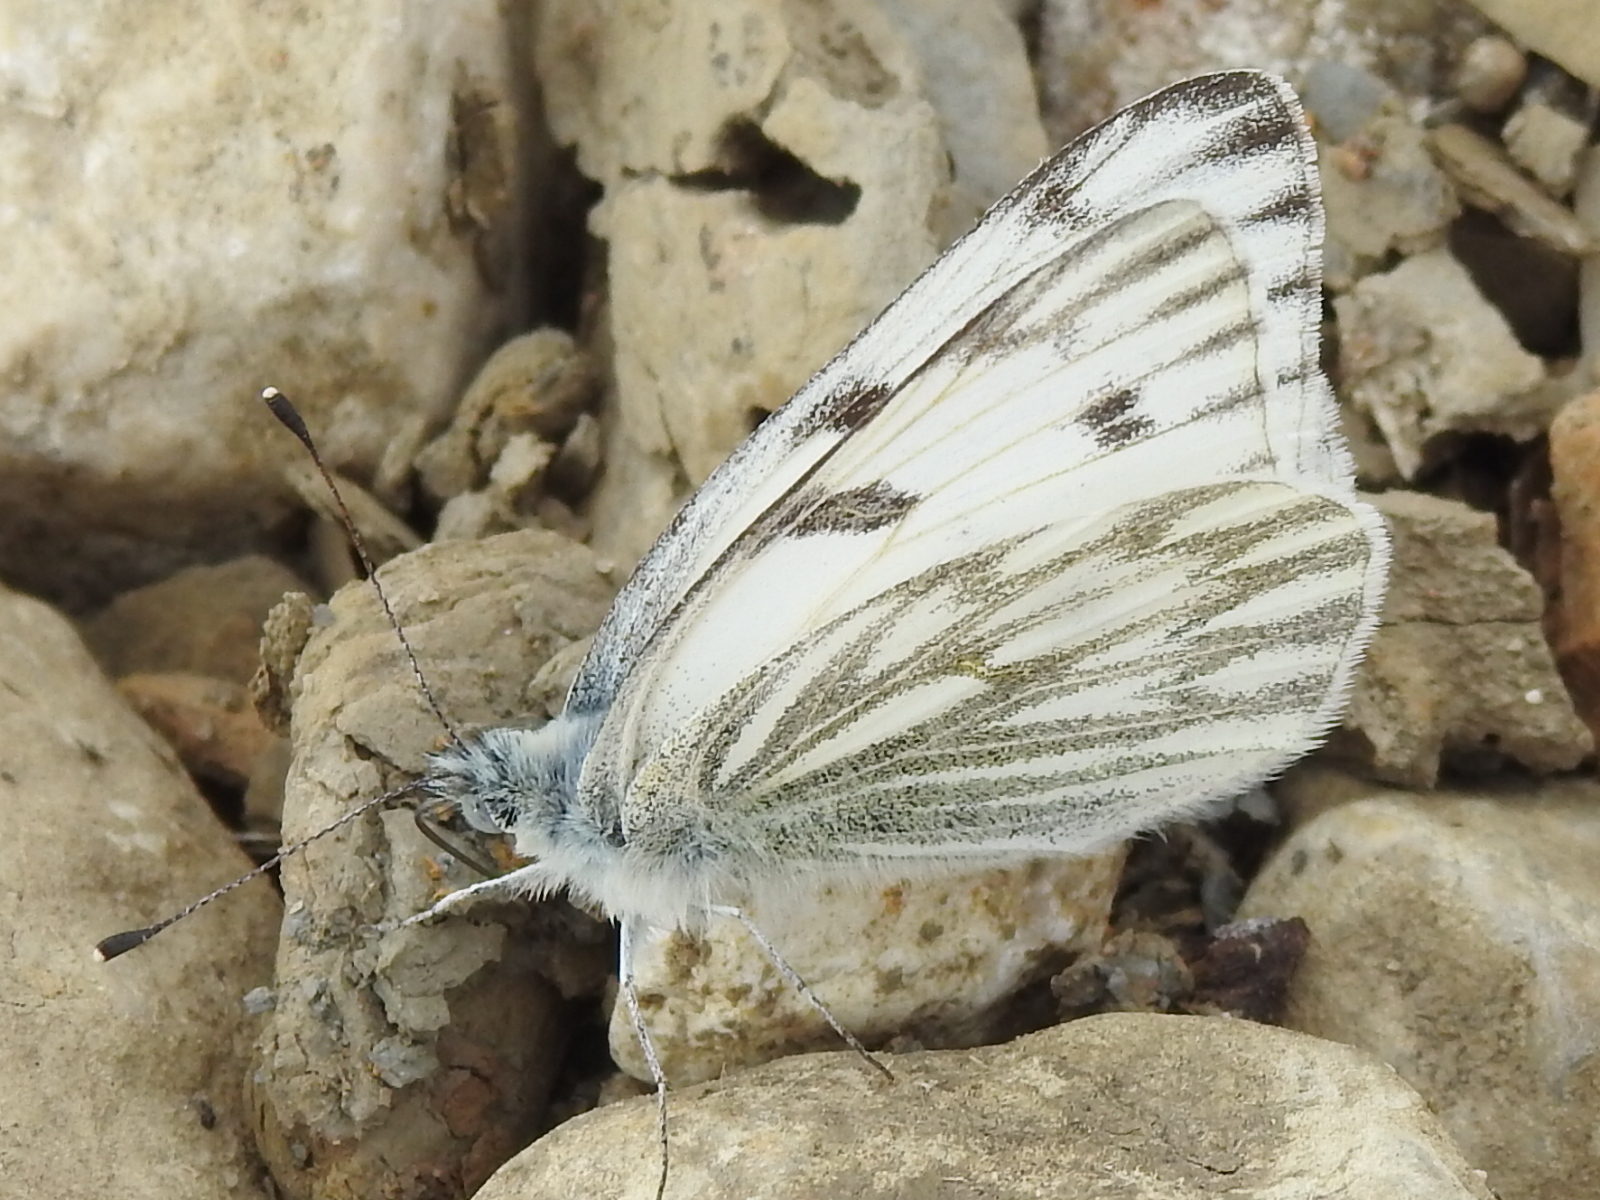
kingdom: Animalia
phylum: Arthropoda
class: Insecta
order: Lepidoptera
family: Pieridae
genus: Pontia
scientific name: Pontia protodice
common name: Checkered white
